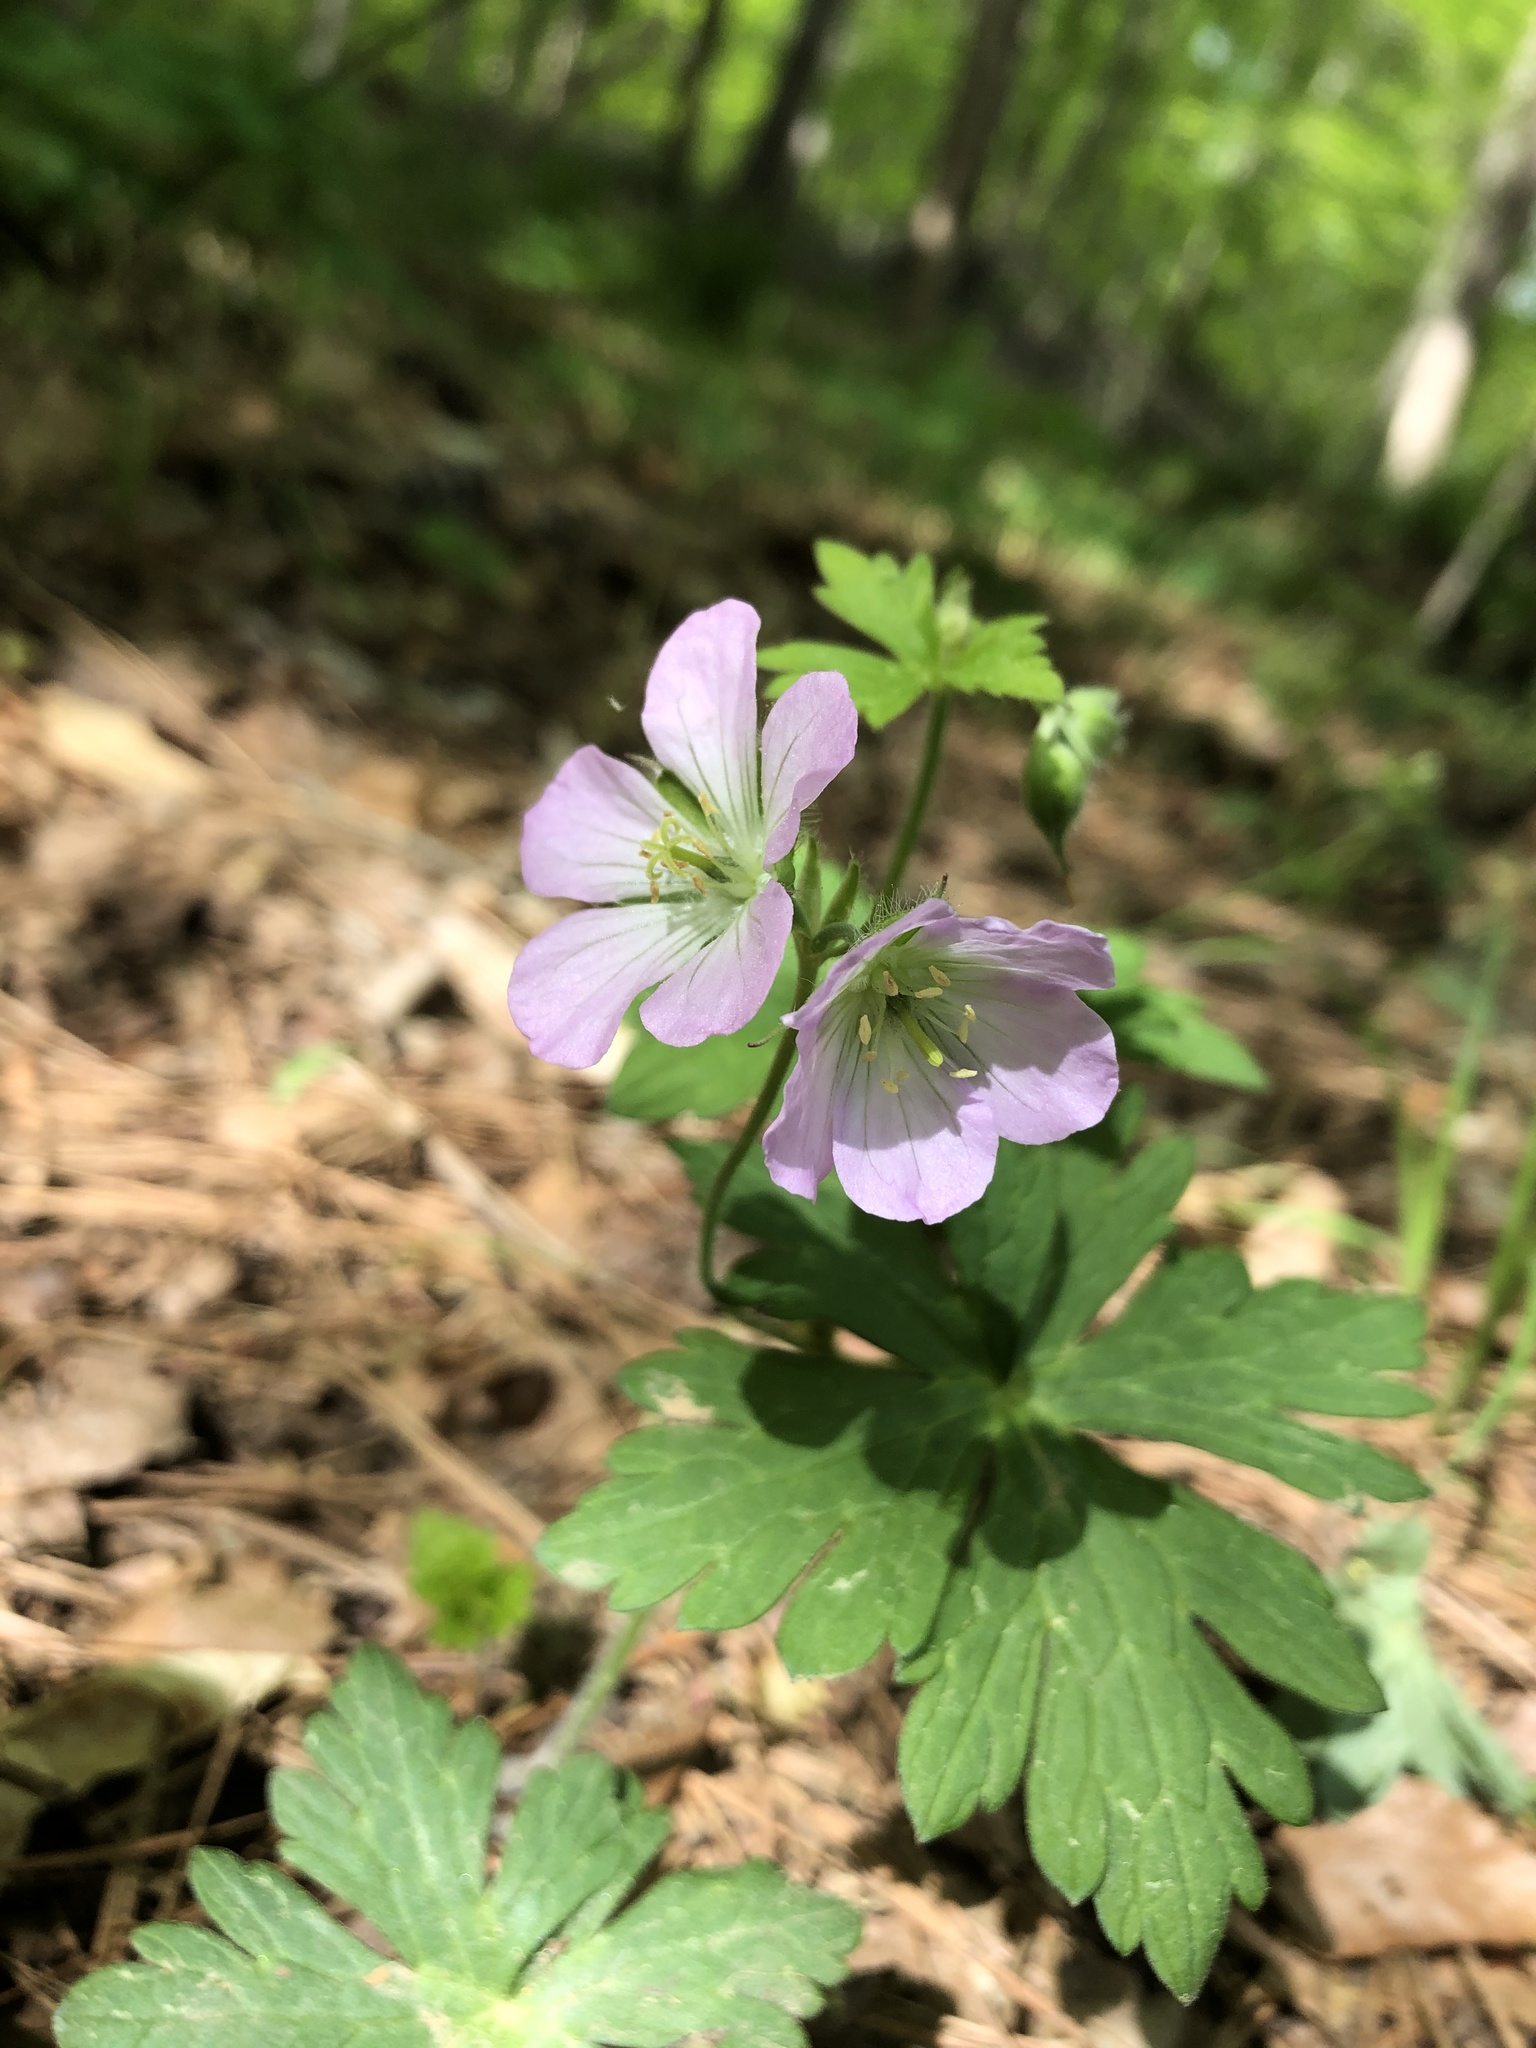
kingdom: Plantae
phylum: Tracheophyta
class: Magnoliopsida
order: Geraniales
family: Geraniaceae
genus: Geranium
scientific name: Geranium maculatum
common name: Spotted geranium
